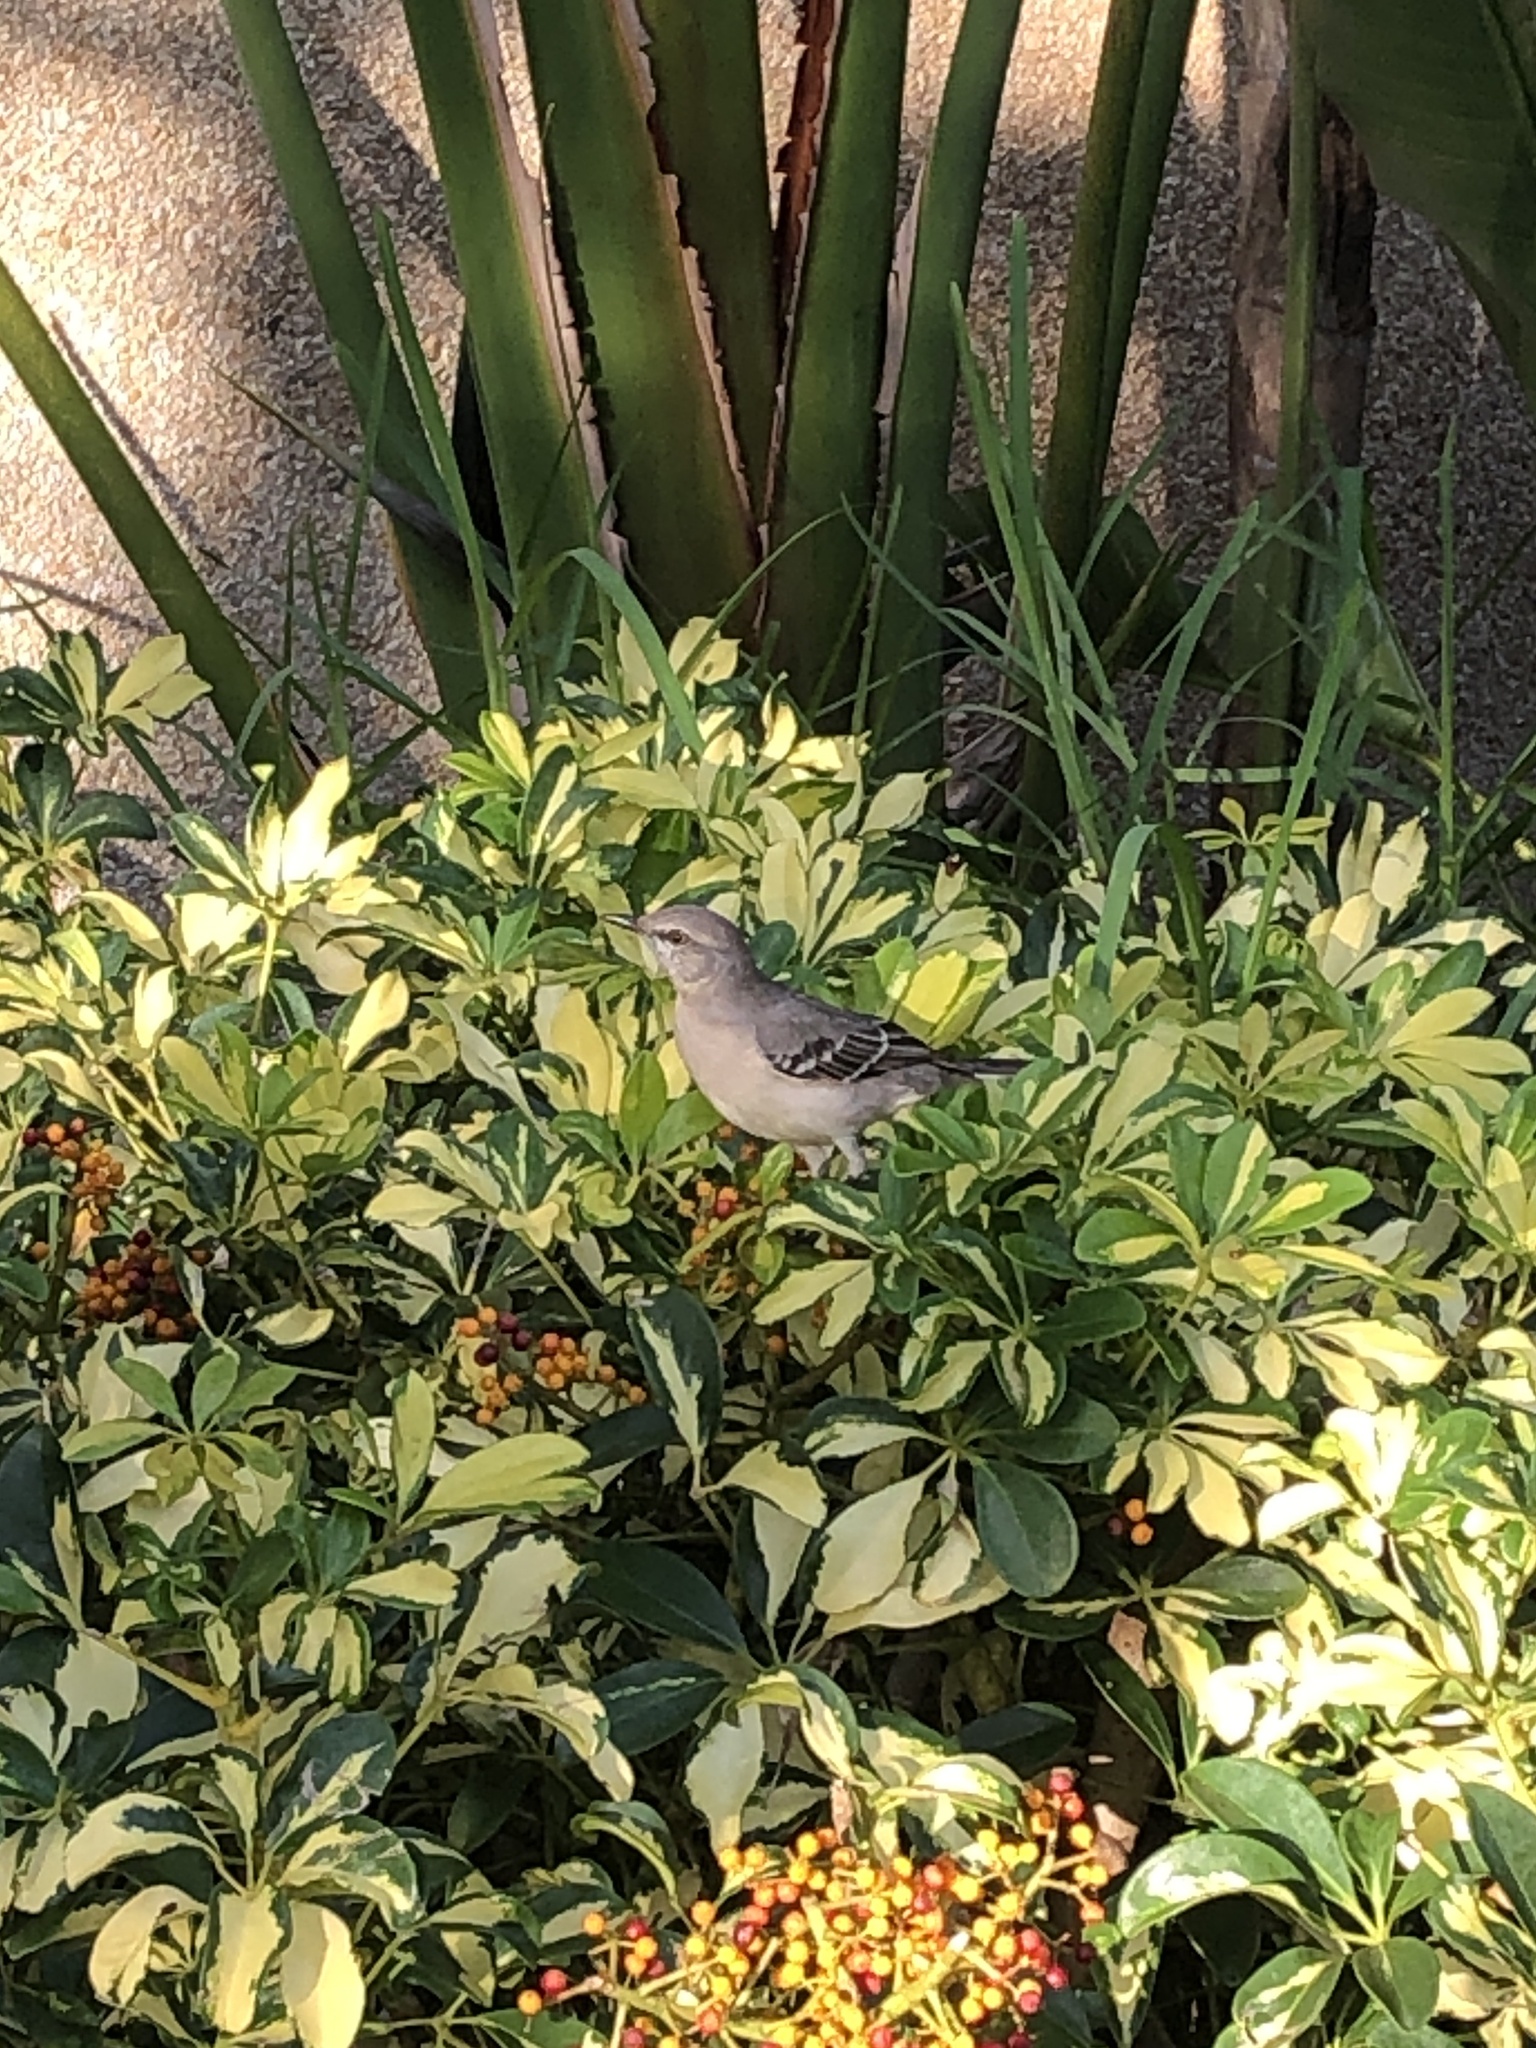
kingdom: Animalia
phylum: Chordata
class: Aves
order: Passeriformes
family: Mimidae
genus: Mimus
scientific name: Mimus polyglottos
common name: Northern mockingbird
